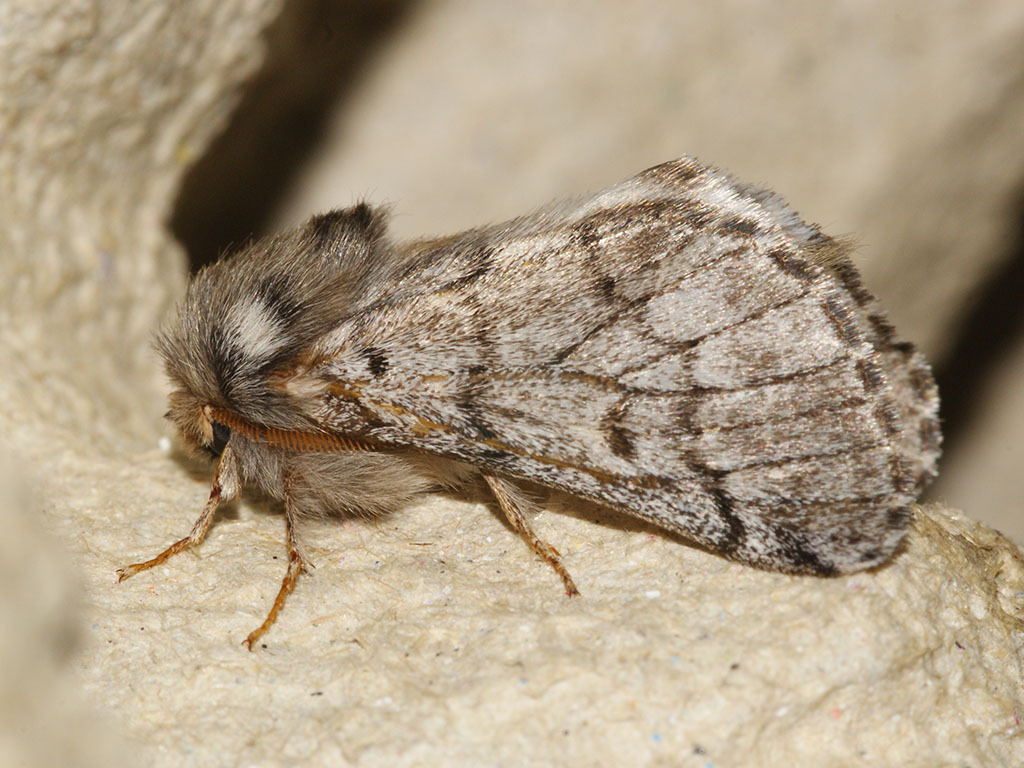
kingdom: Animalia
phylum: Arthropoda
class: Insecta
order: Lepidoptera
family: Notodontidae
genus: Thaumetopoea
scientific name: Thaumetopoea pityocampa
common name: Pine processionary
